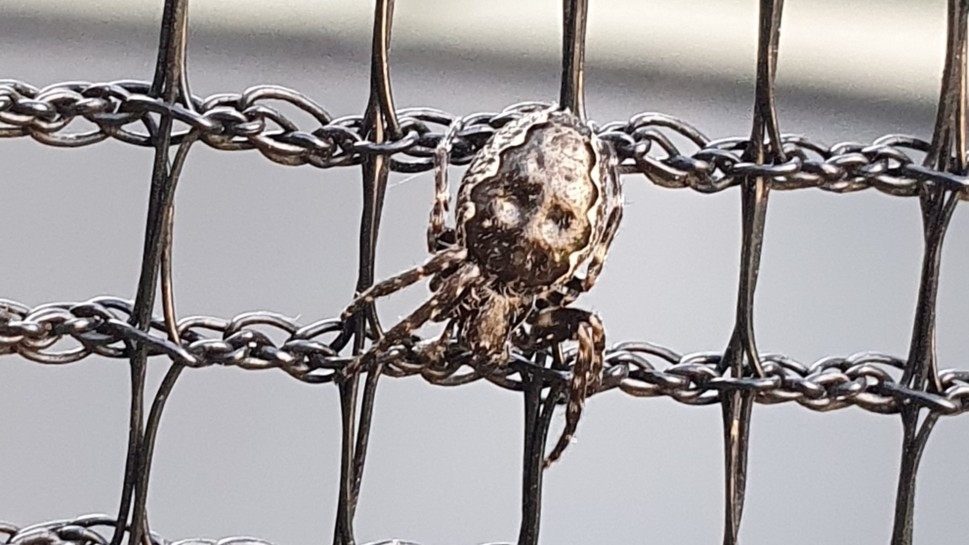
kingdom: Animalia
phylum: Arthropoda
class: Arachnida
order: Araneae
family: Araneidae
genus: Nuctenea
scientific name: Nuctenea umbratica
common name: Toad spider
